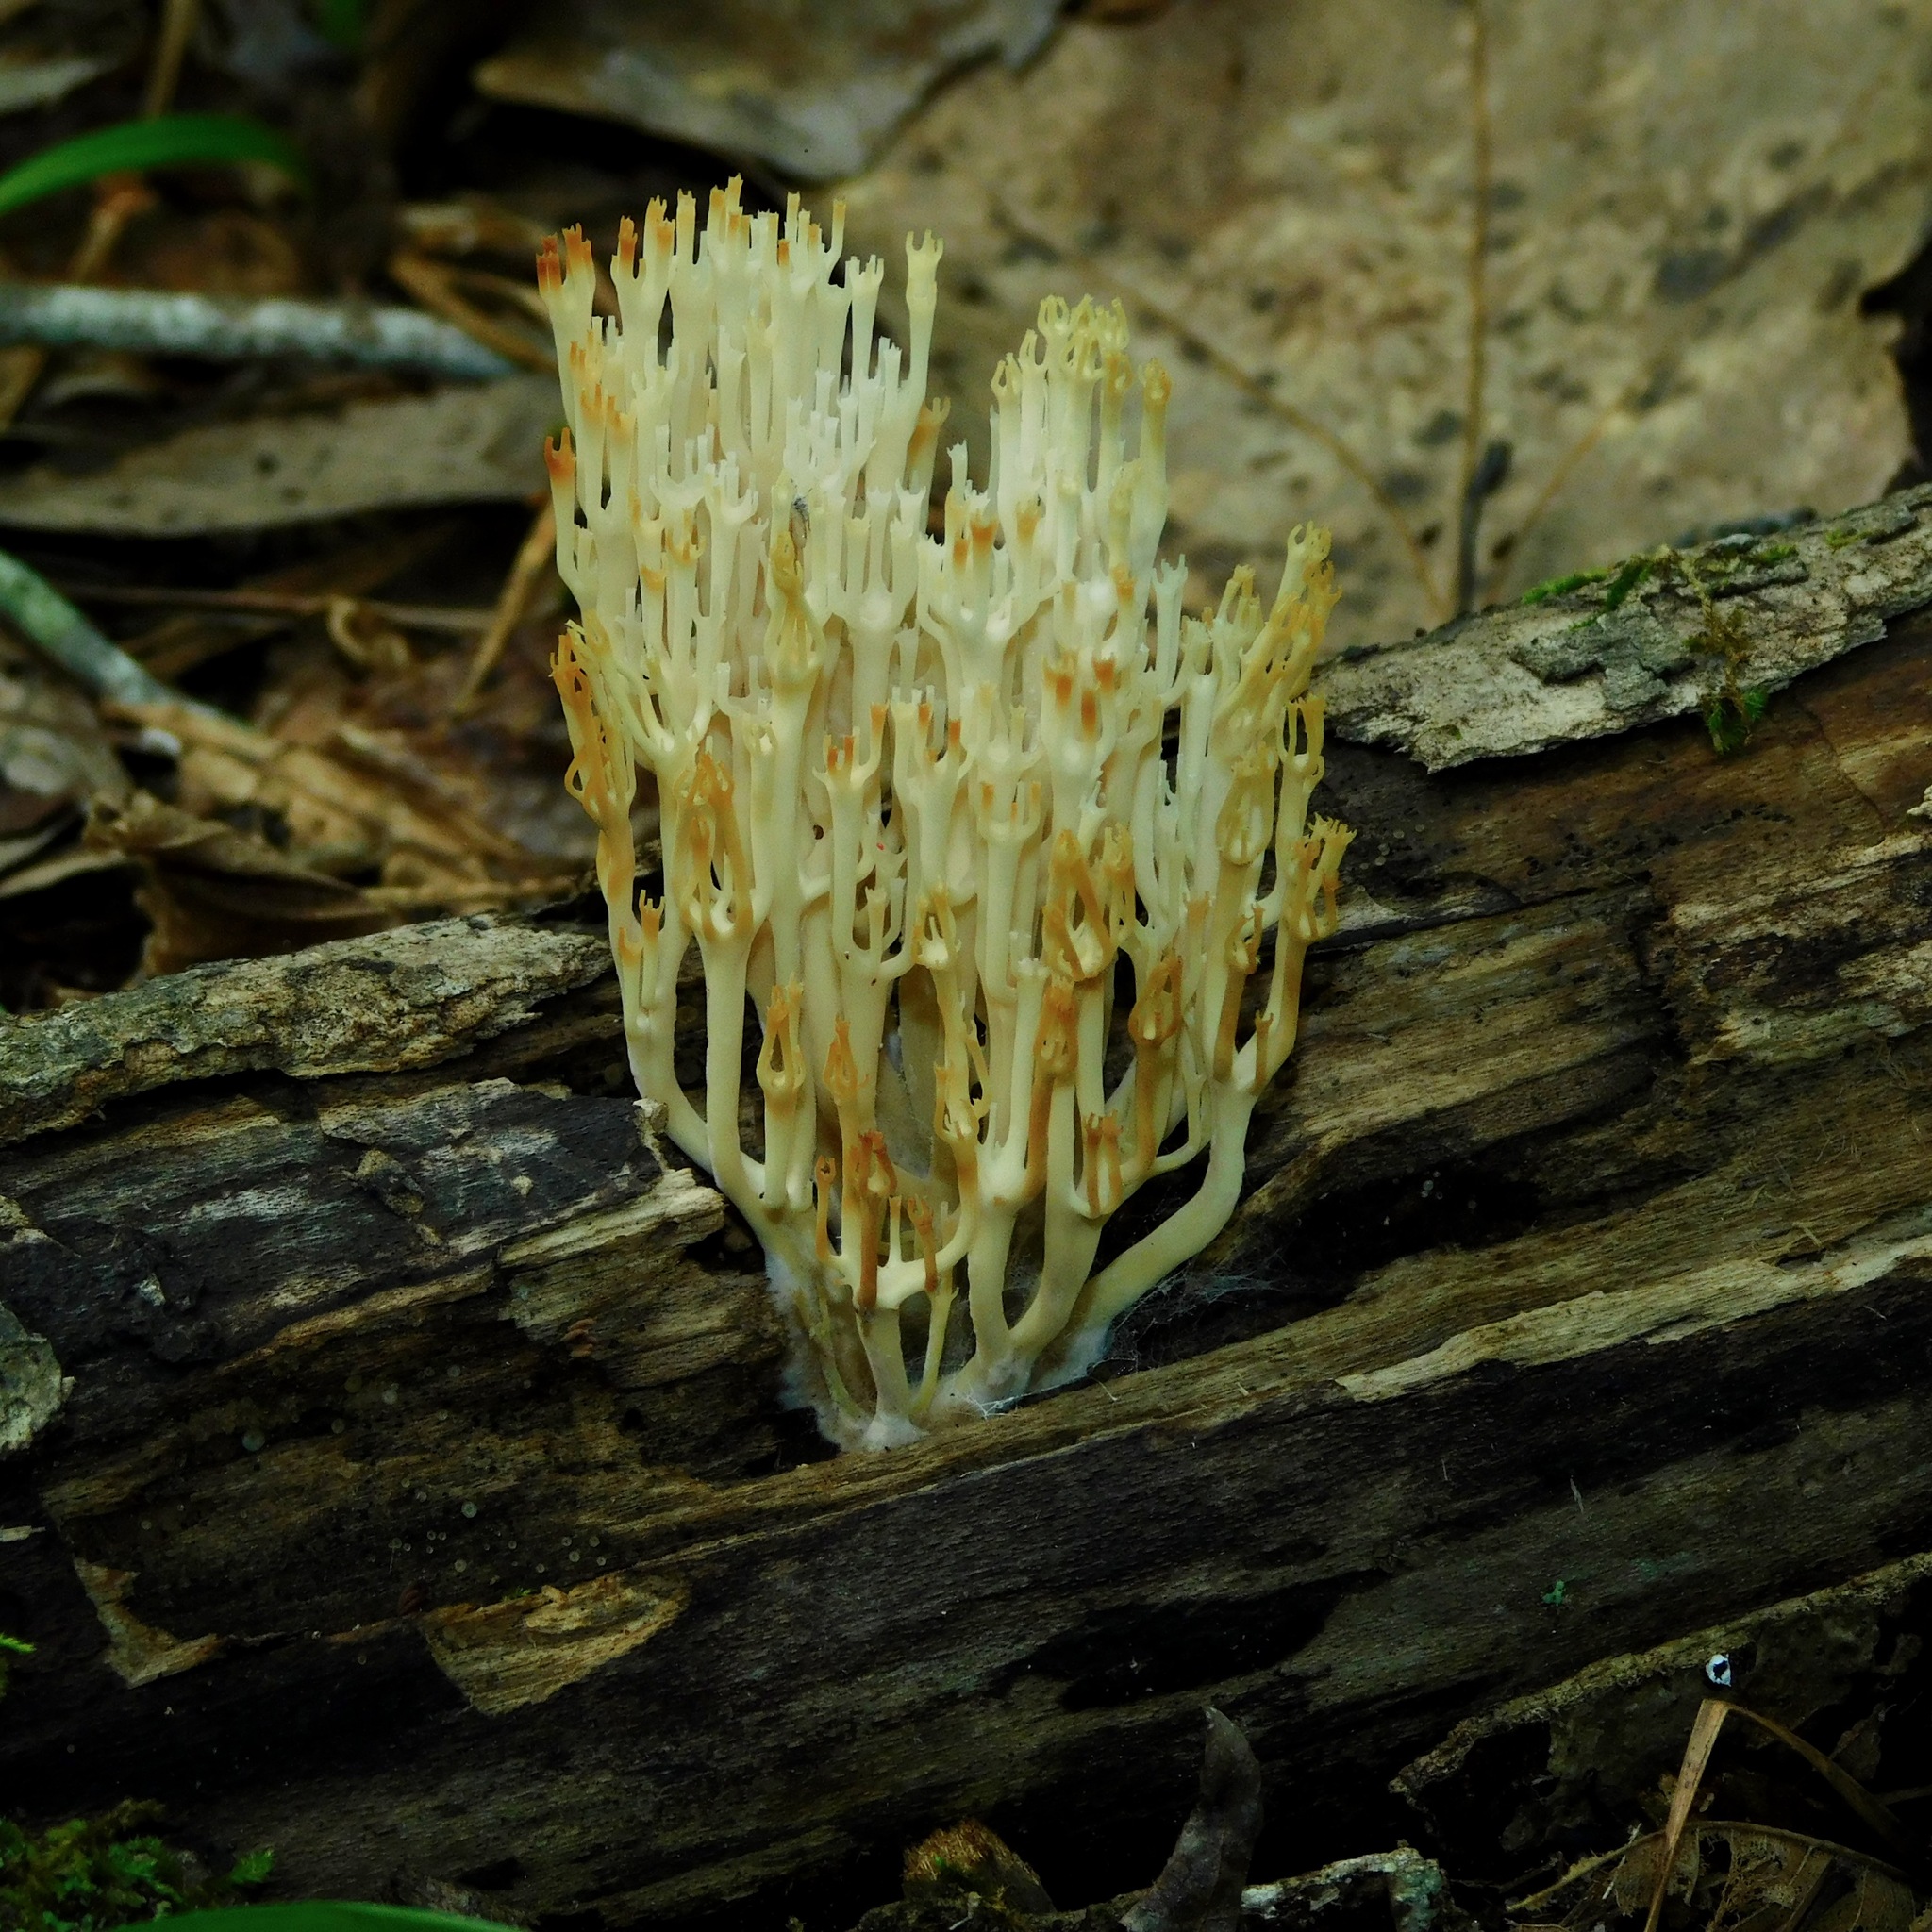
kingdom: Fungi
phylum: Basidiomycota
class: Agaricomycetes
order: Russulales
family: Auriscalpiaceae
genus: Artomyces
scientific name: Artomyces pyxidatus
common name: Crown-tipped coral fungus
